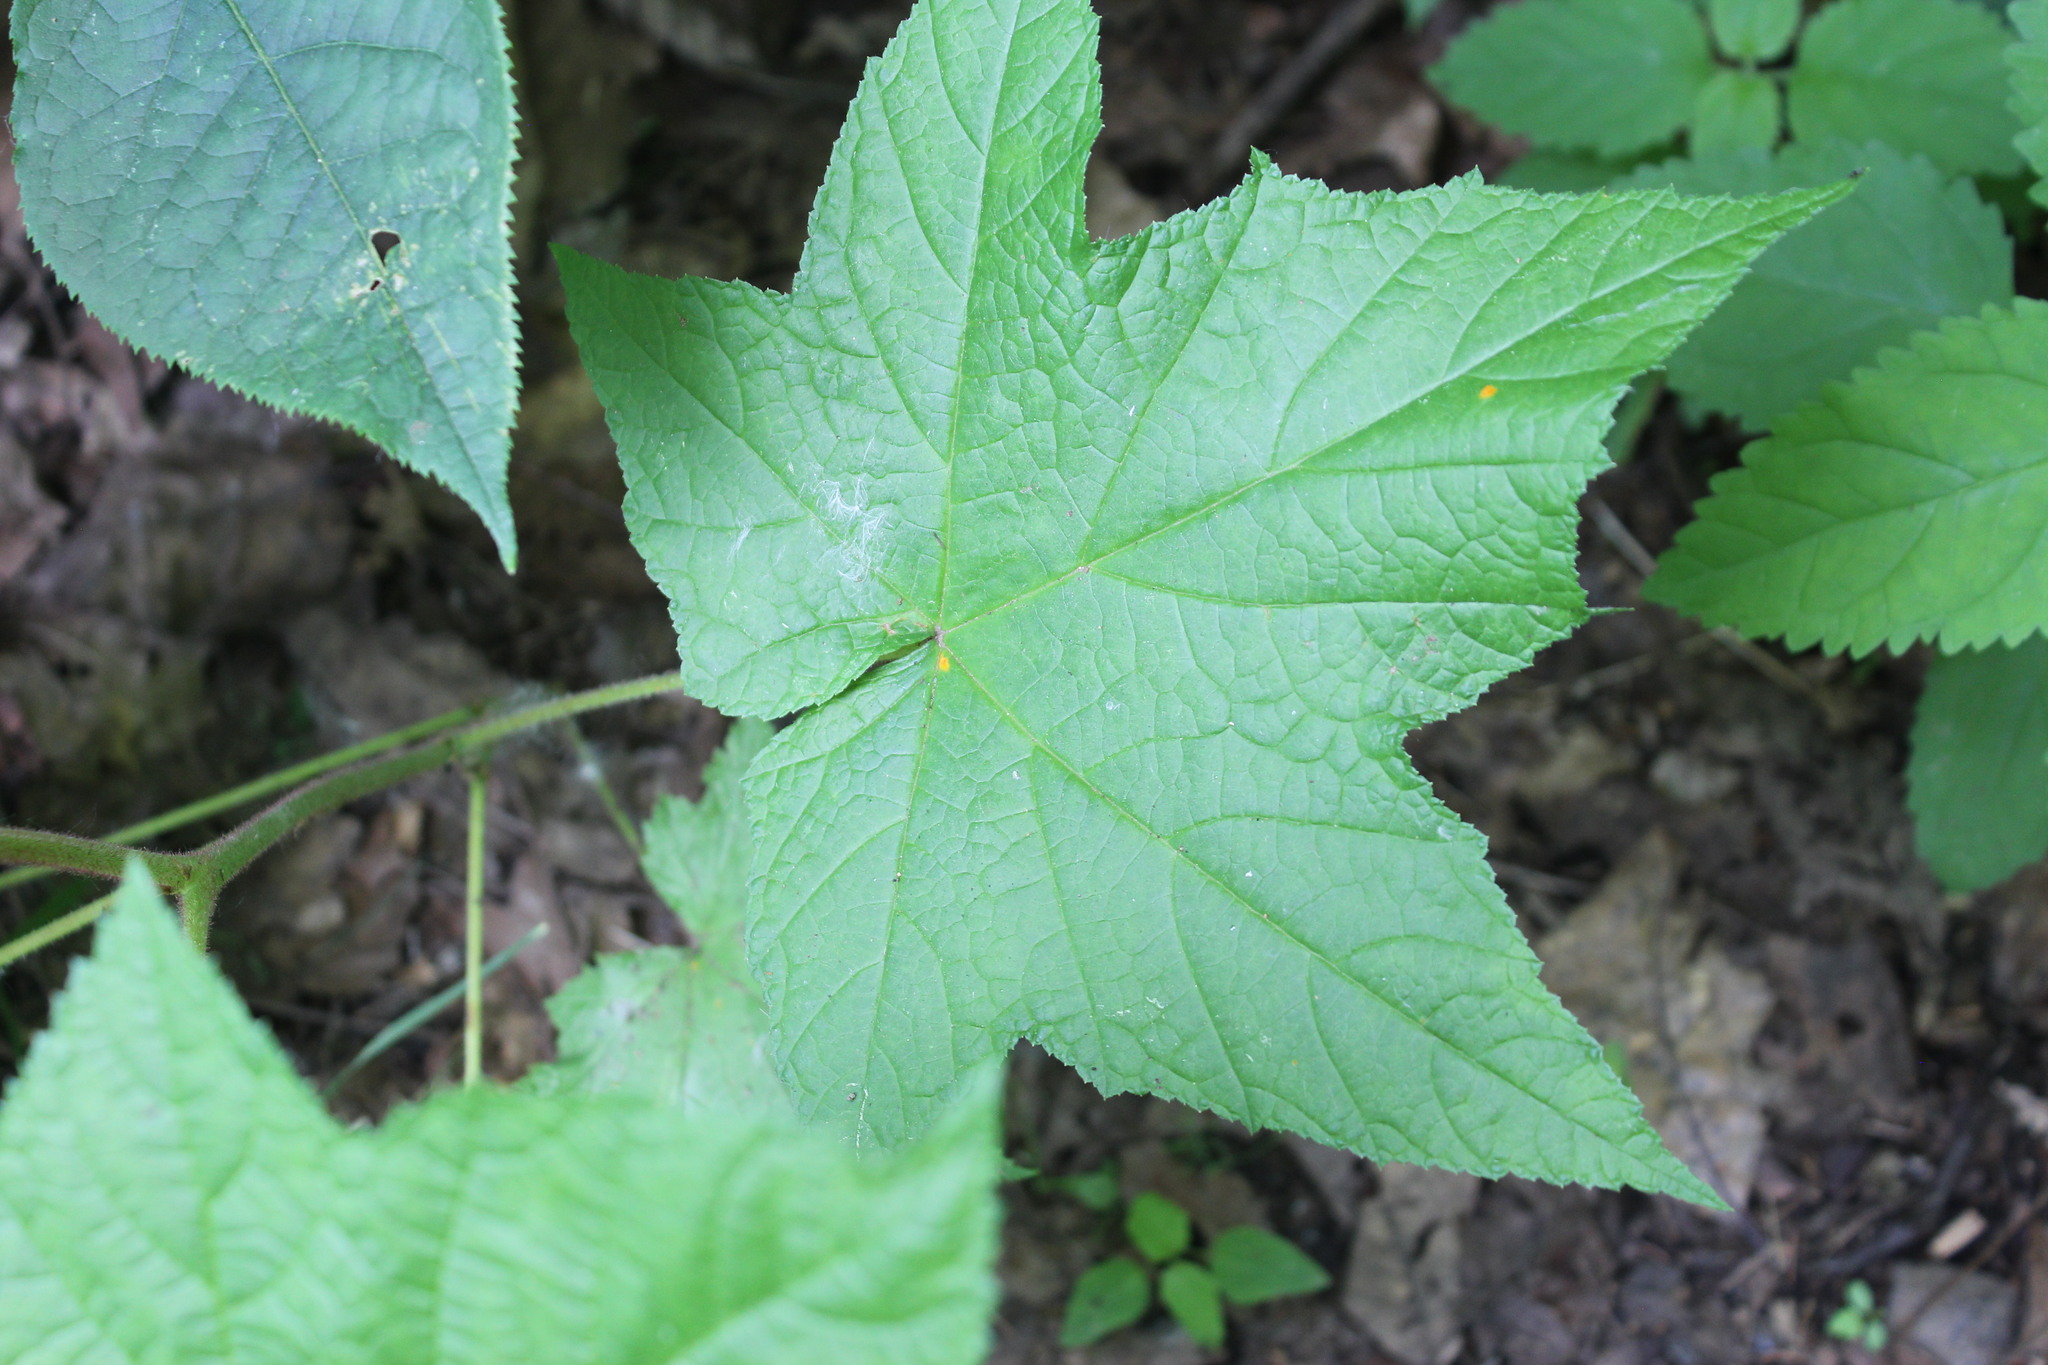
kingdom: Plantae
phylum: Tracheophyta
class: Magnoliopsida
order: Rosales
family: Rosaceae
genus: Rubus
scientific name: Rubus odoratus
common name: Purple-flowered raspberry
